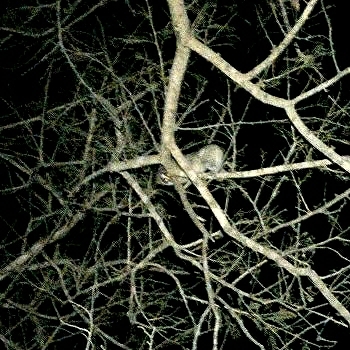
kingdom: Animalia
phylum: Chordata
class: Mammalia
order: Primates
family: Lorisidae
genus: Loris
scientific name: Loris lydekkerianus
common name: Gray slender loris
